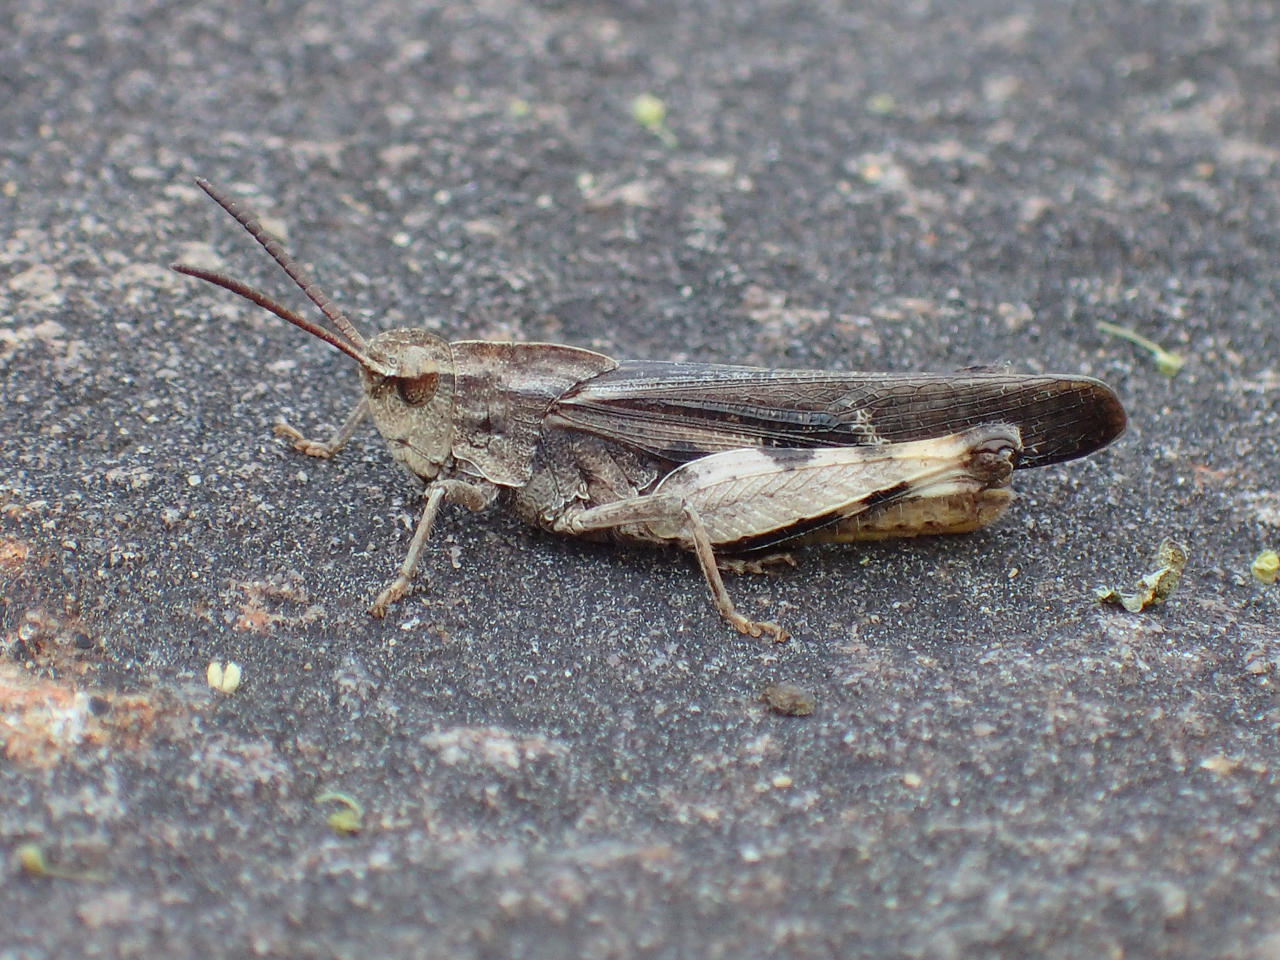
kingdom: Animalia
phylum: Arthropoda
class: Insecta
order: Orthoptera
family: Acrididae
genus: Chortophaga
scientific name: Chortophaga viridifasciata
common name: Green-striped grasshopper
